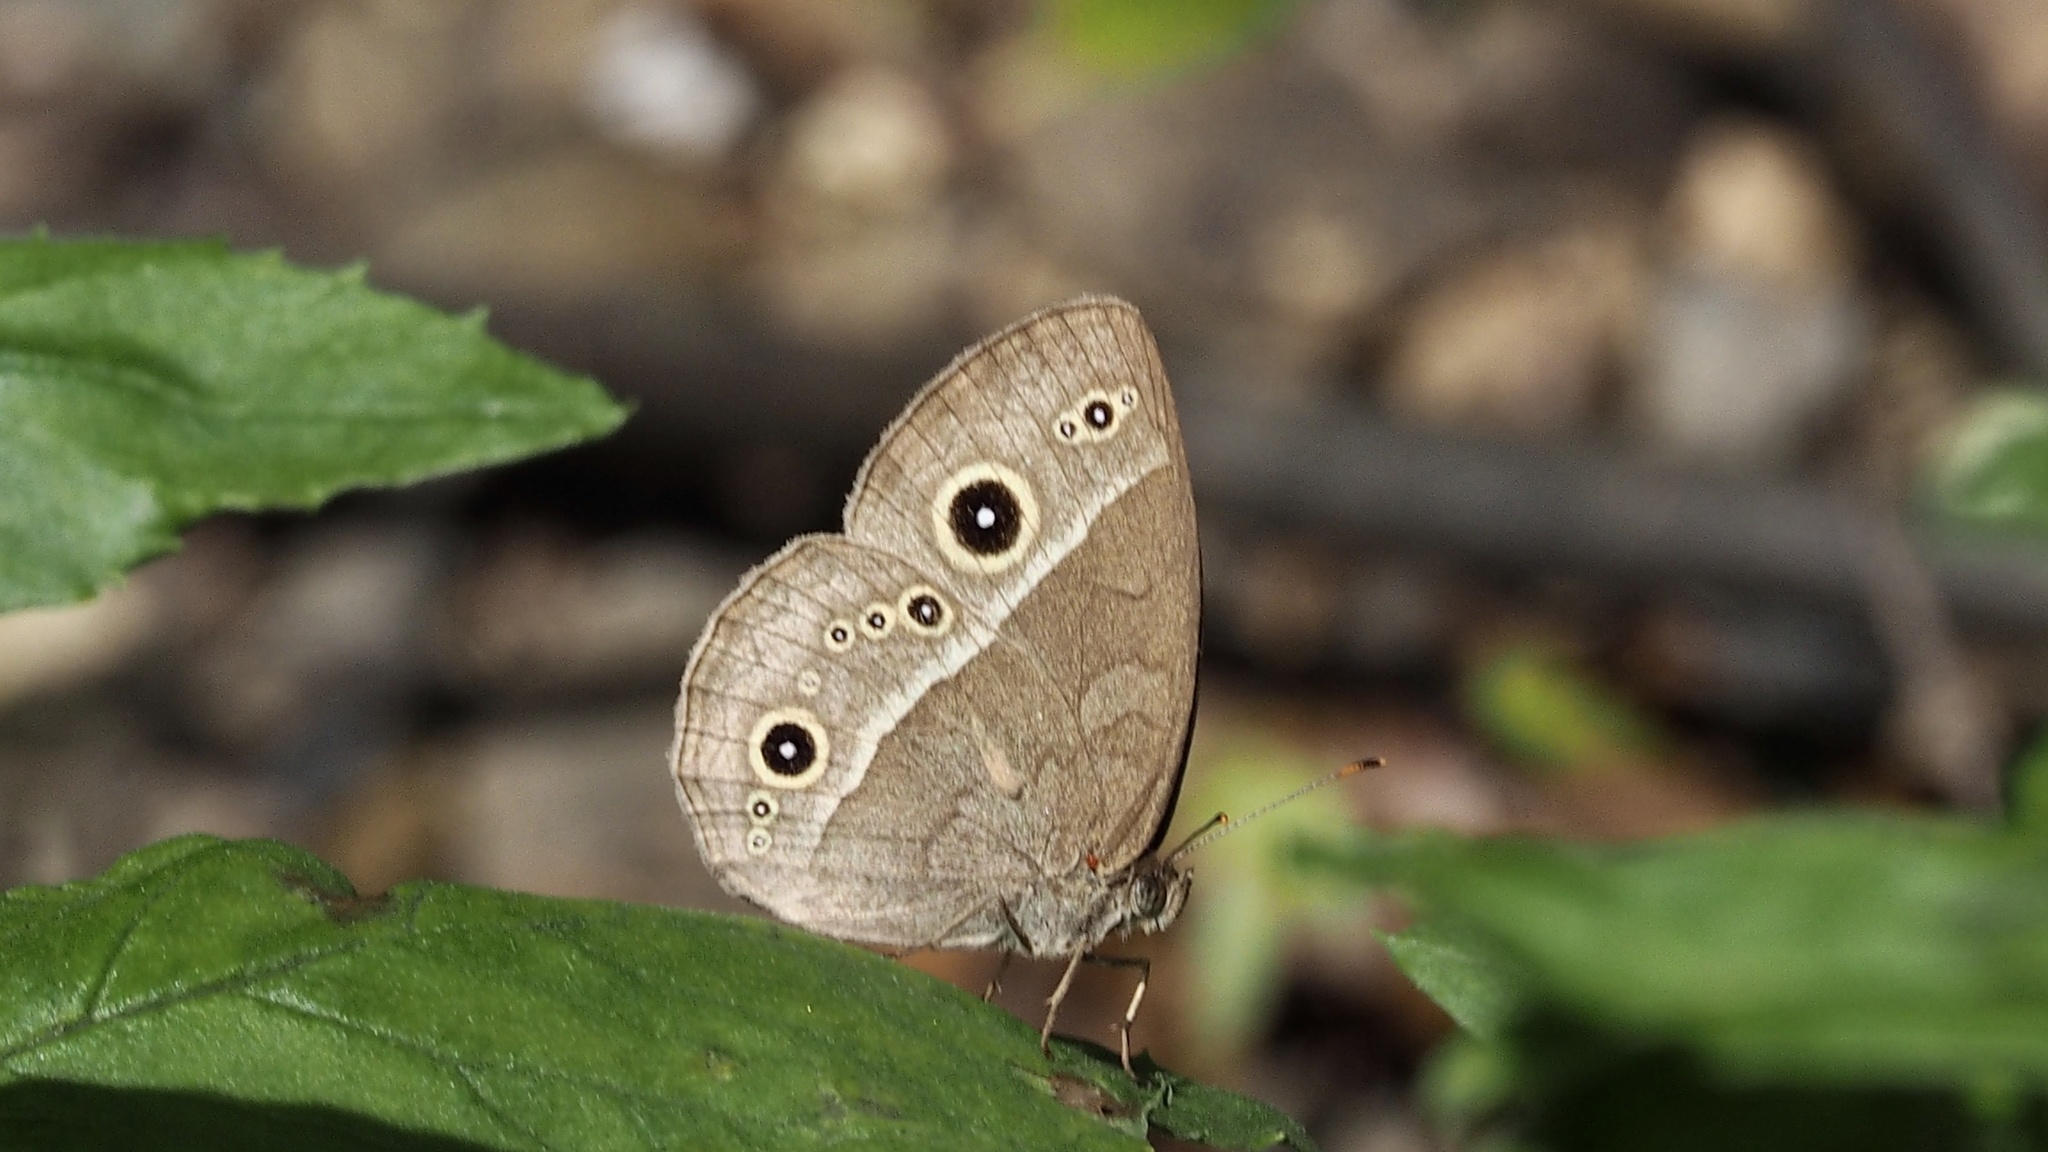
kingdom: Animalia
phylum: Arthropoda
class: Insecta
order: Lepidoptera
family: Nymphalidae
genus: Mycalesis
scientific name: Mycalesis gotama
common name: Chinese bushbrown
